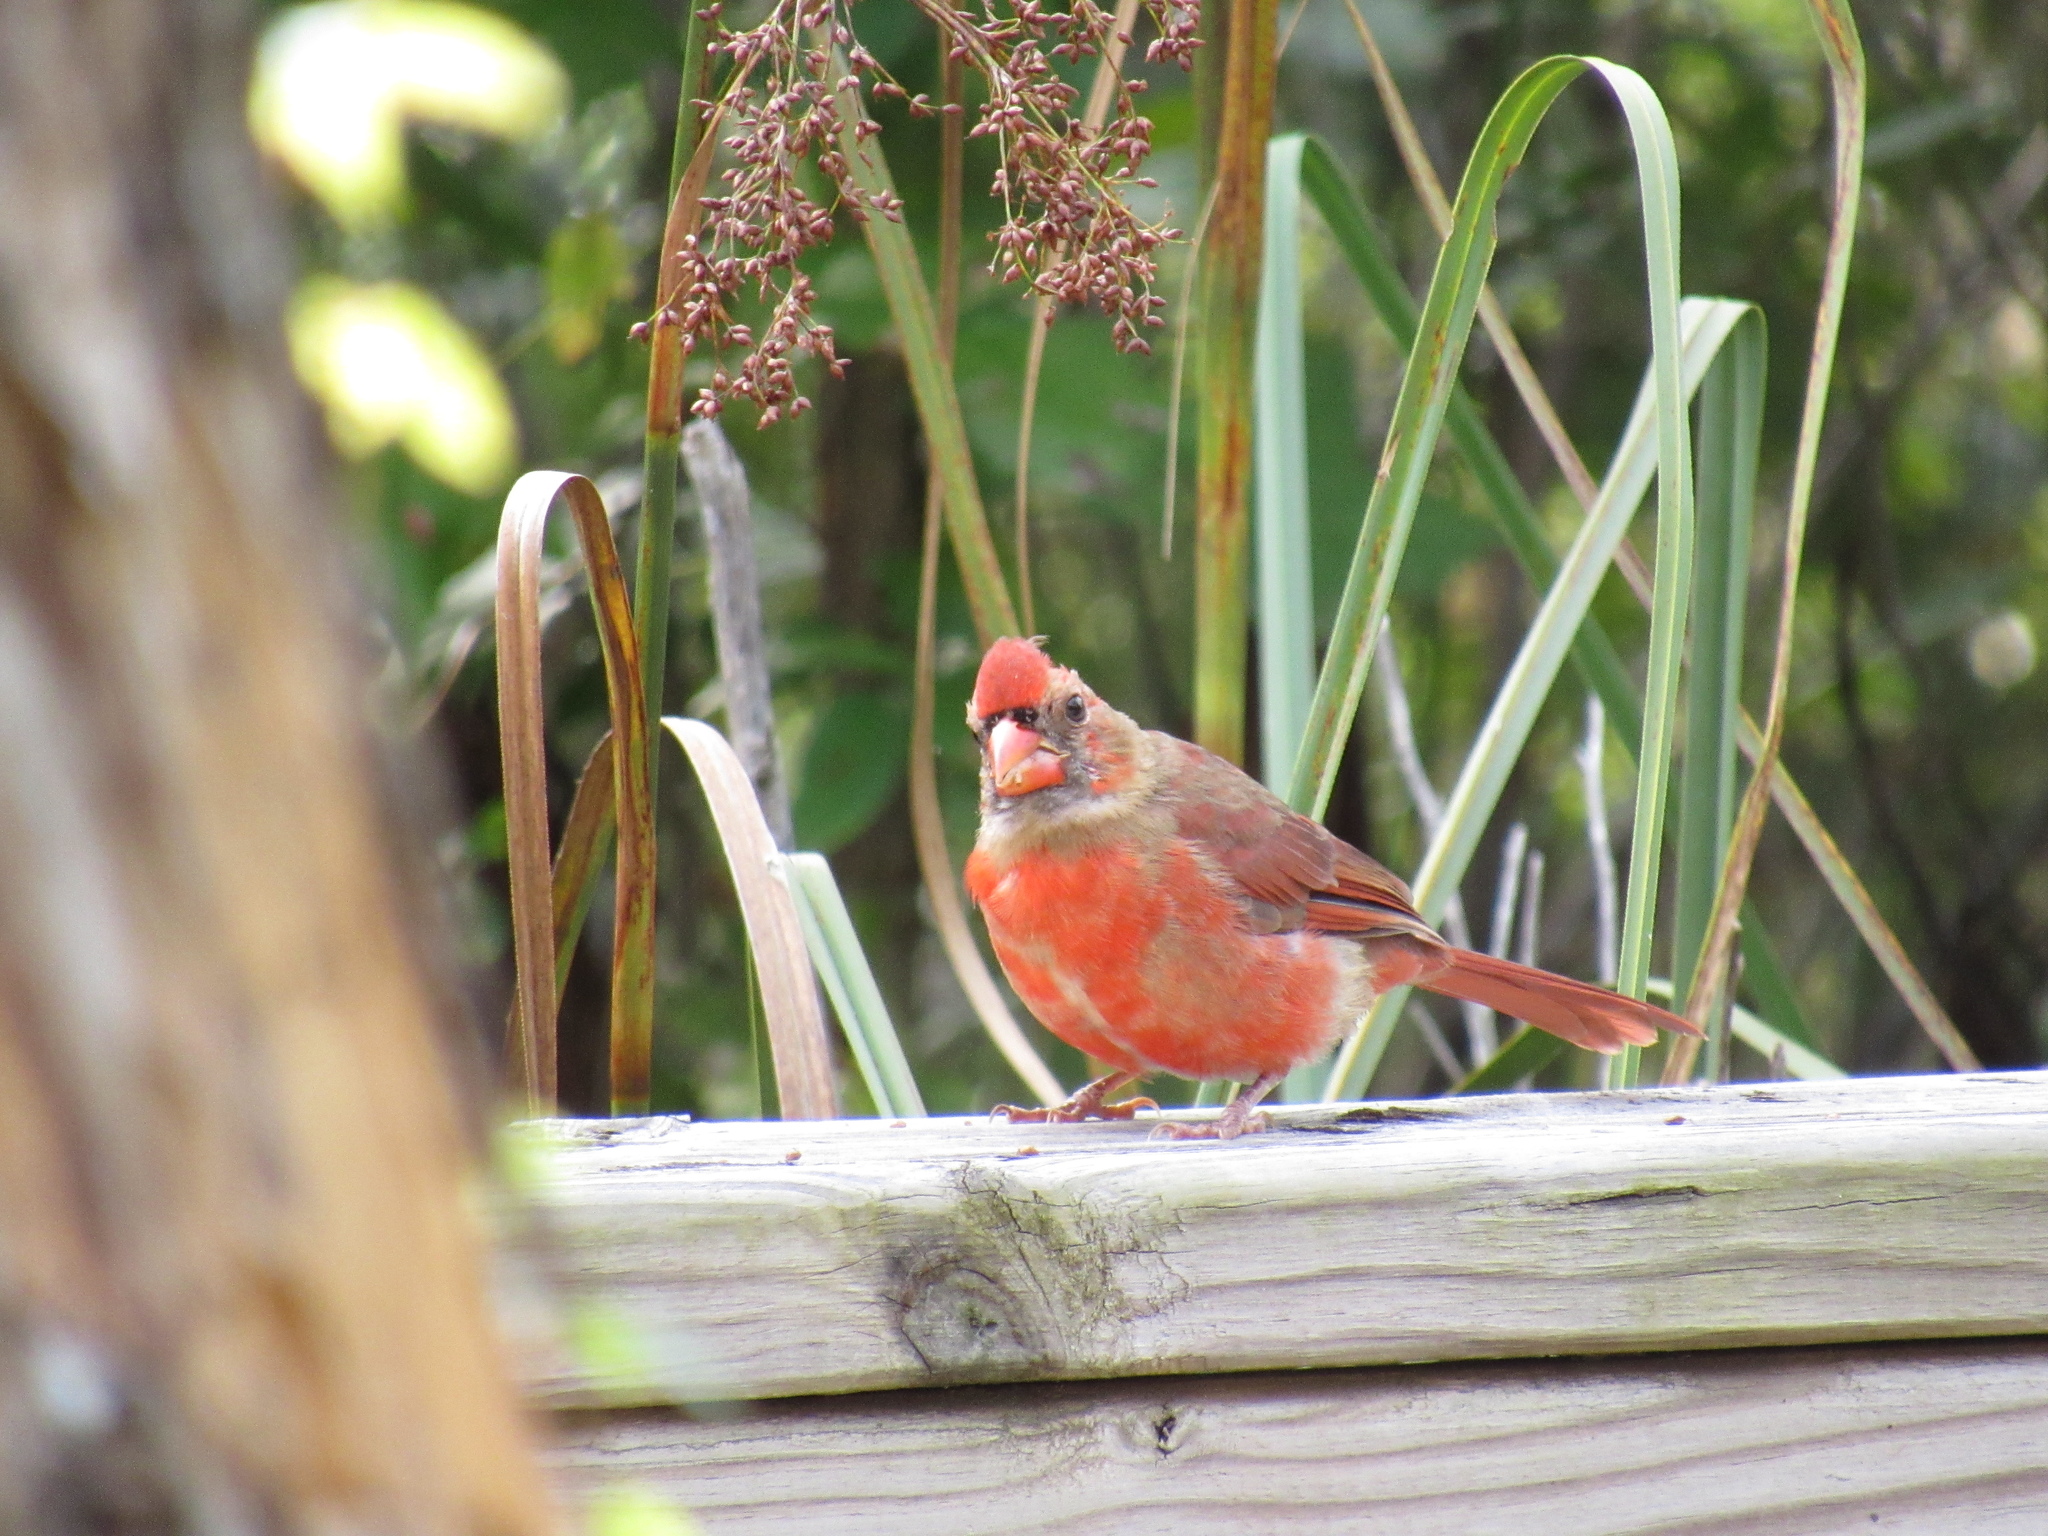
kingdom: Animalia
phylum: Chordata
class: Aves
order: Passeriformes
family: Cardinalidae
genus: Cardinalis
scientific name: Cardinalis cardinalis
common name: Northern cardinal
